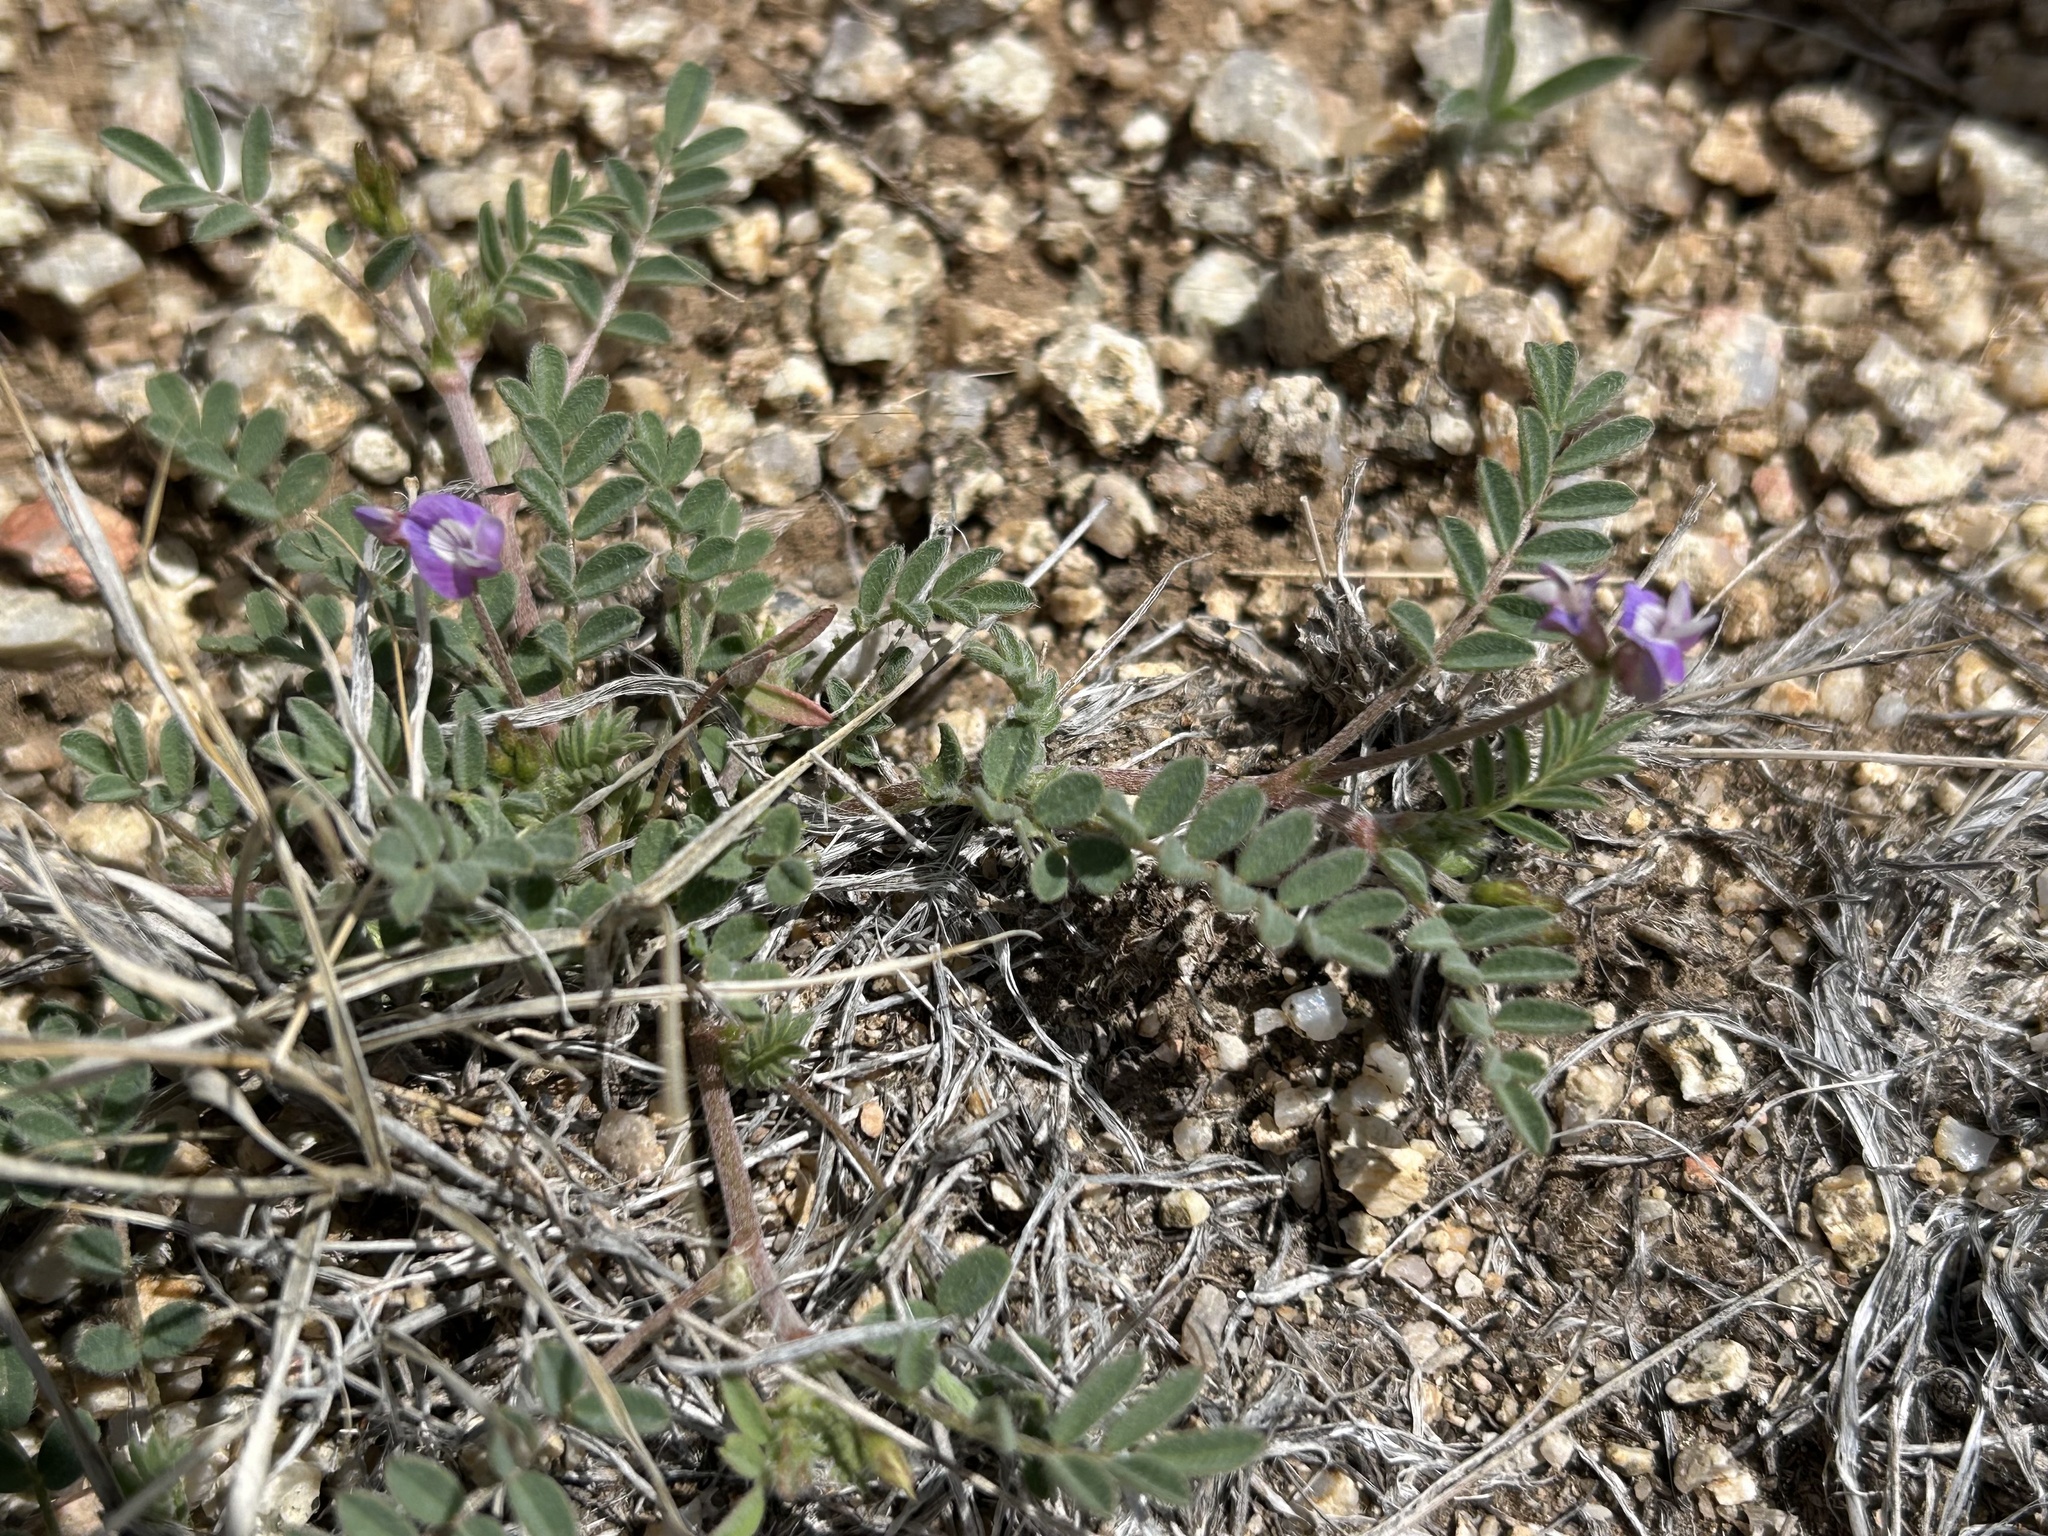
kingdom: Plantae
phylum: Tracheophyta
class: Magnoliopsida
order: Fabales
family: Fabaceae
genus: Astragalus
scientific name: Astragalus nuttallianus
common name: Smallflowered milkvetch
